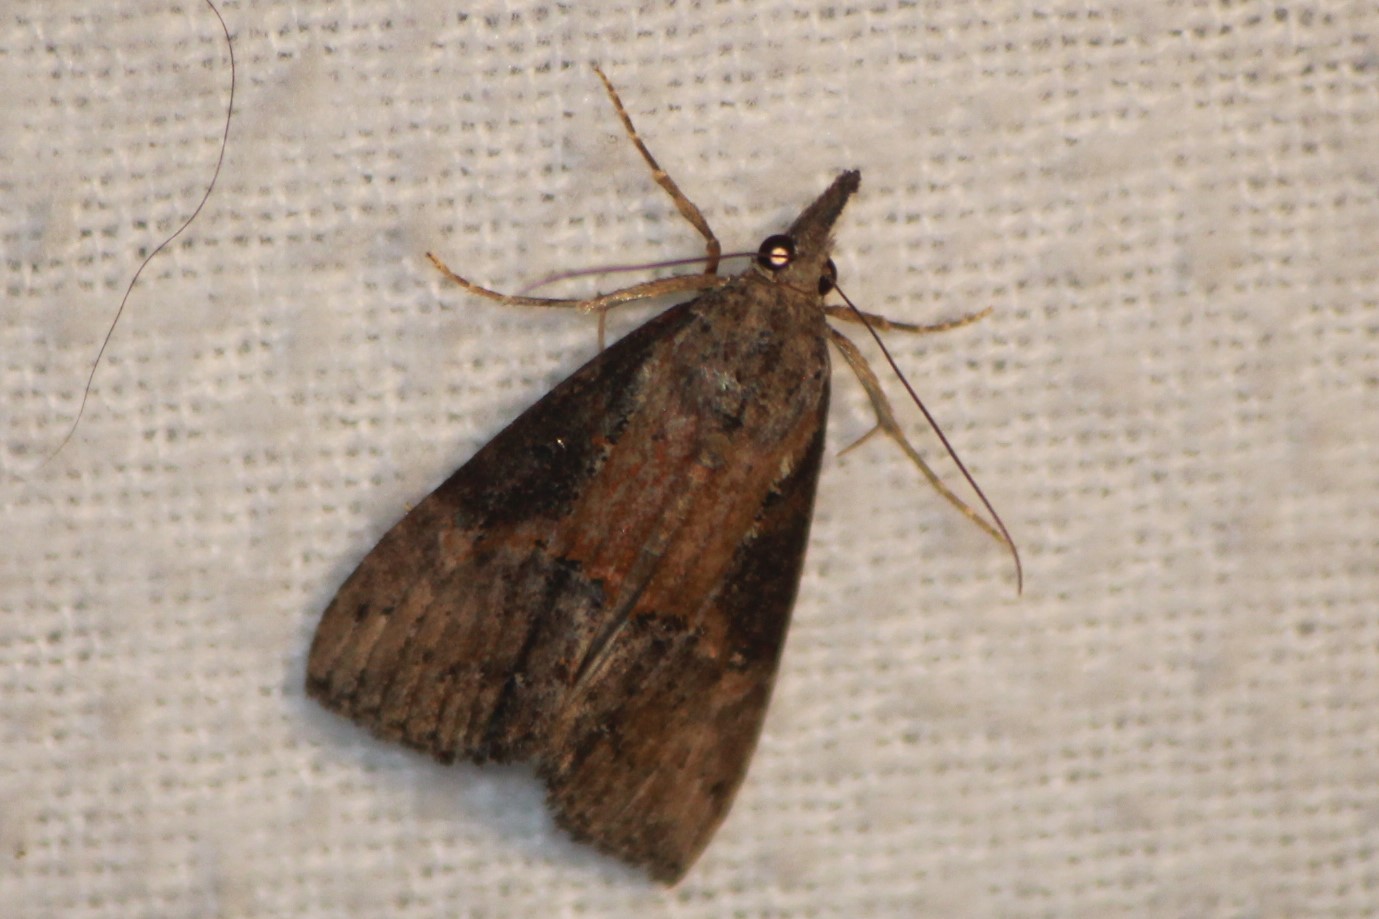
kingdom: Animalia
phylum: Arthropoda
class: Insecta
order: Lepidoptera
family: Erebidae
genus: Hypena
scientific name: Hypena scabra
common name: Green cloverworm
